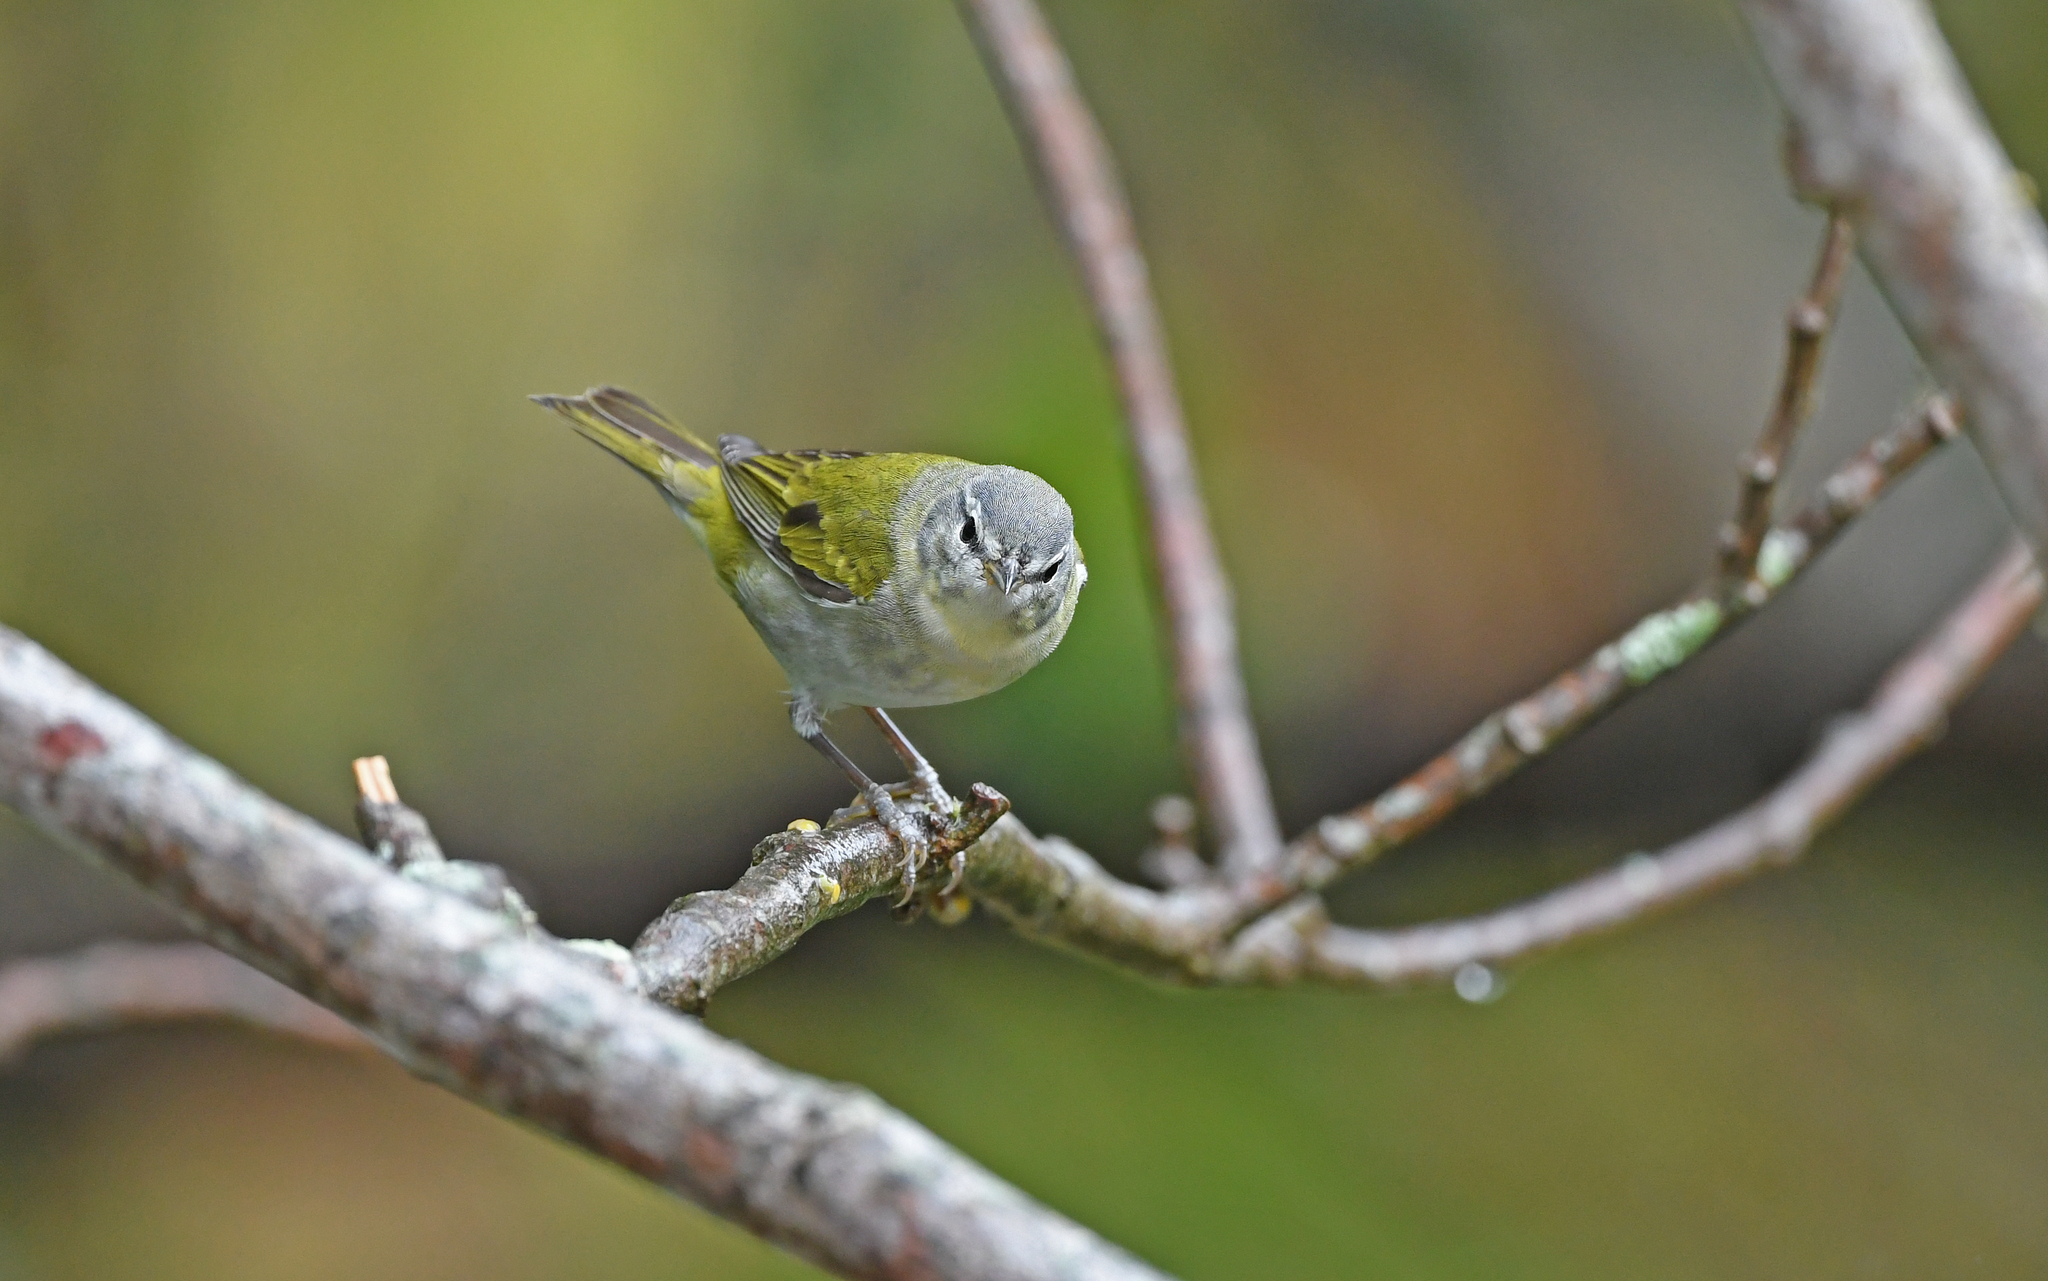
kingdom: Animalia
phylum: Chordata
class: Aves
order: Passeriformes
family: Parulidae
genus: Leiothlypis
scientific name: Leiothlypis peregrina
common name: Tennessee warbler
